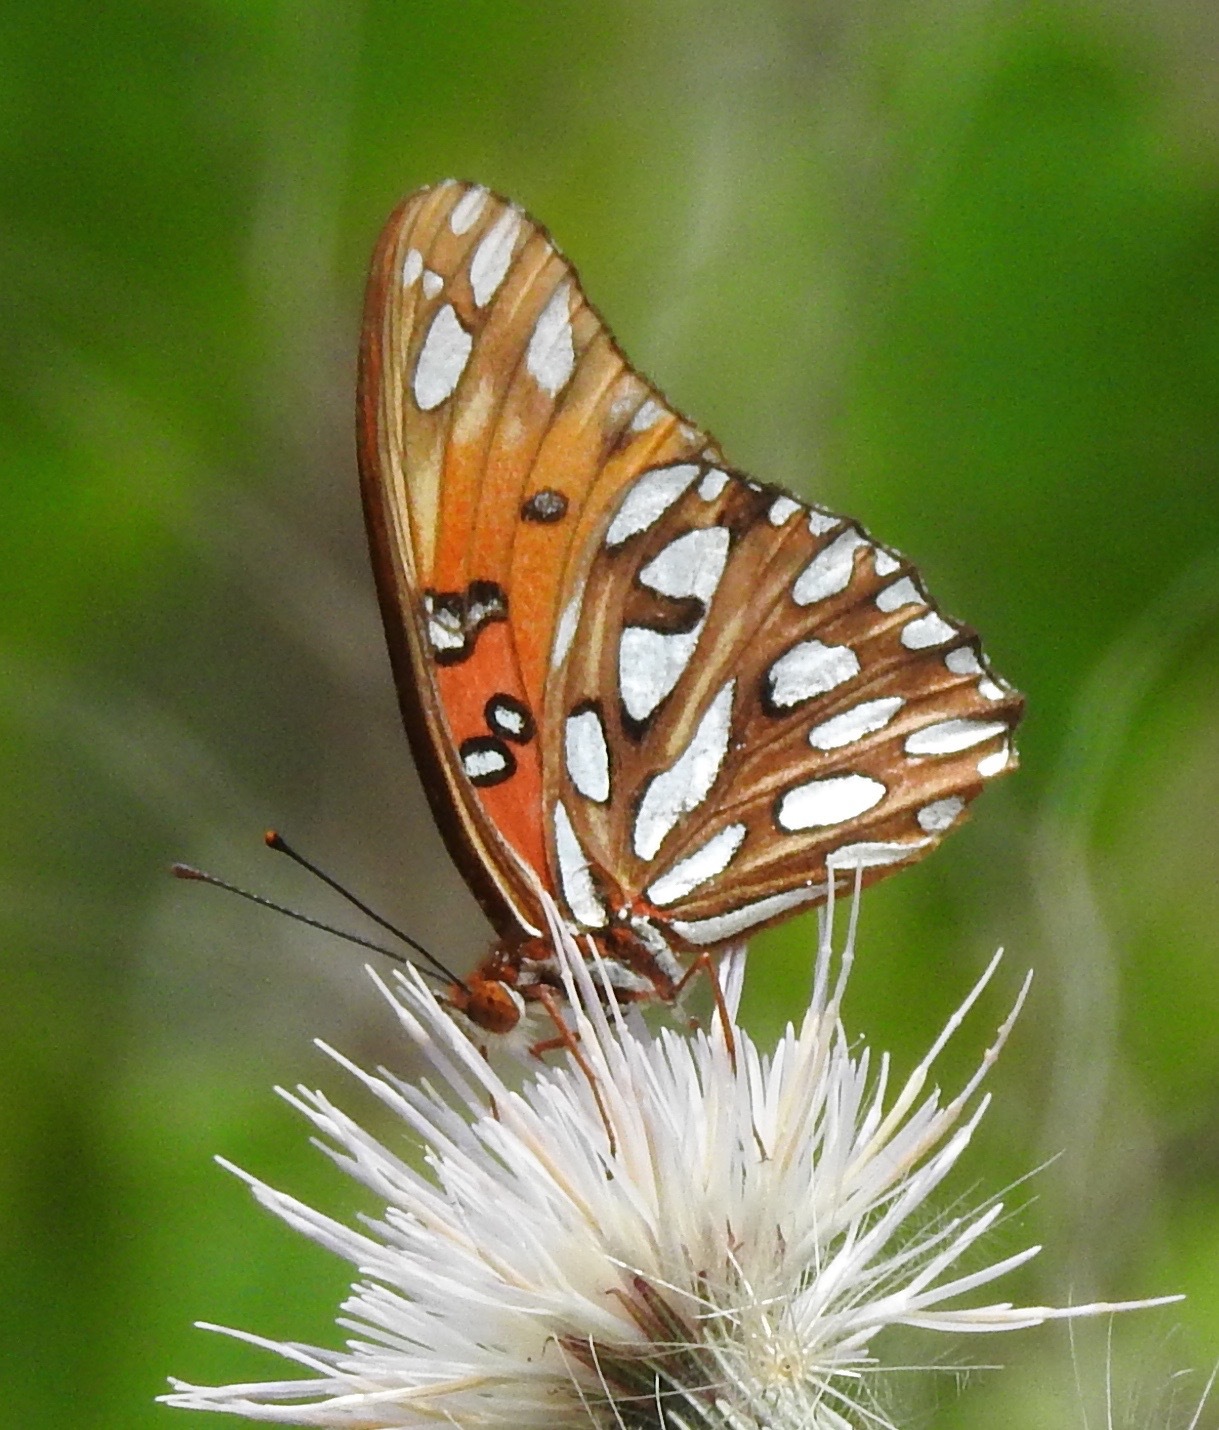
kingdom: Animalia
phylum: Arthropoda
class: Insecta
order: Lepidoptera
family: Nymphalidae
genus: Dione
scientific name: Dione vanillae
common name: Gulf fritillary
